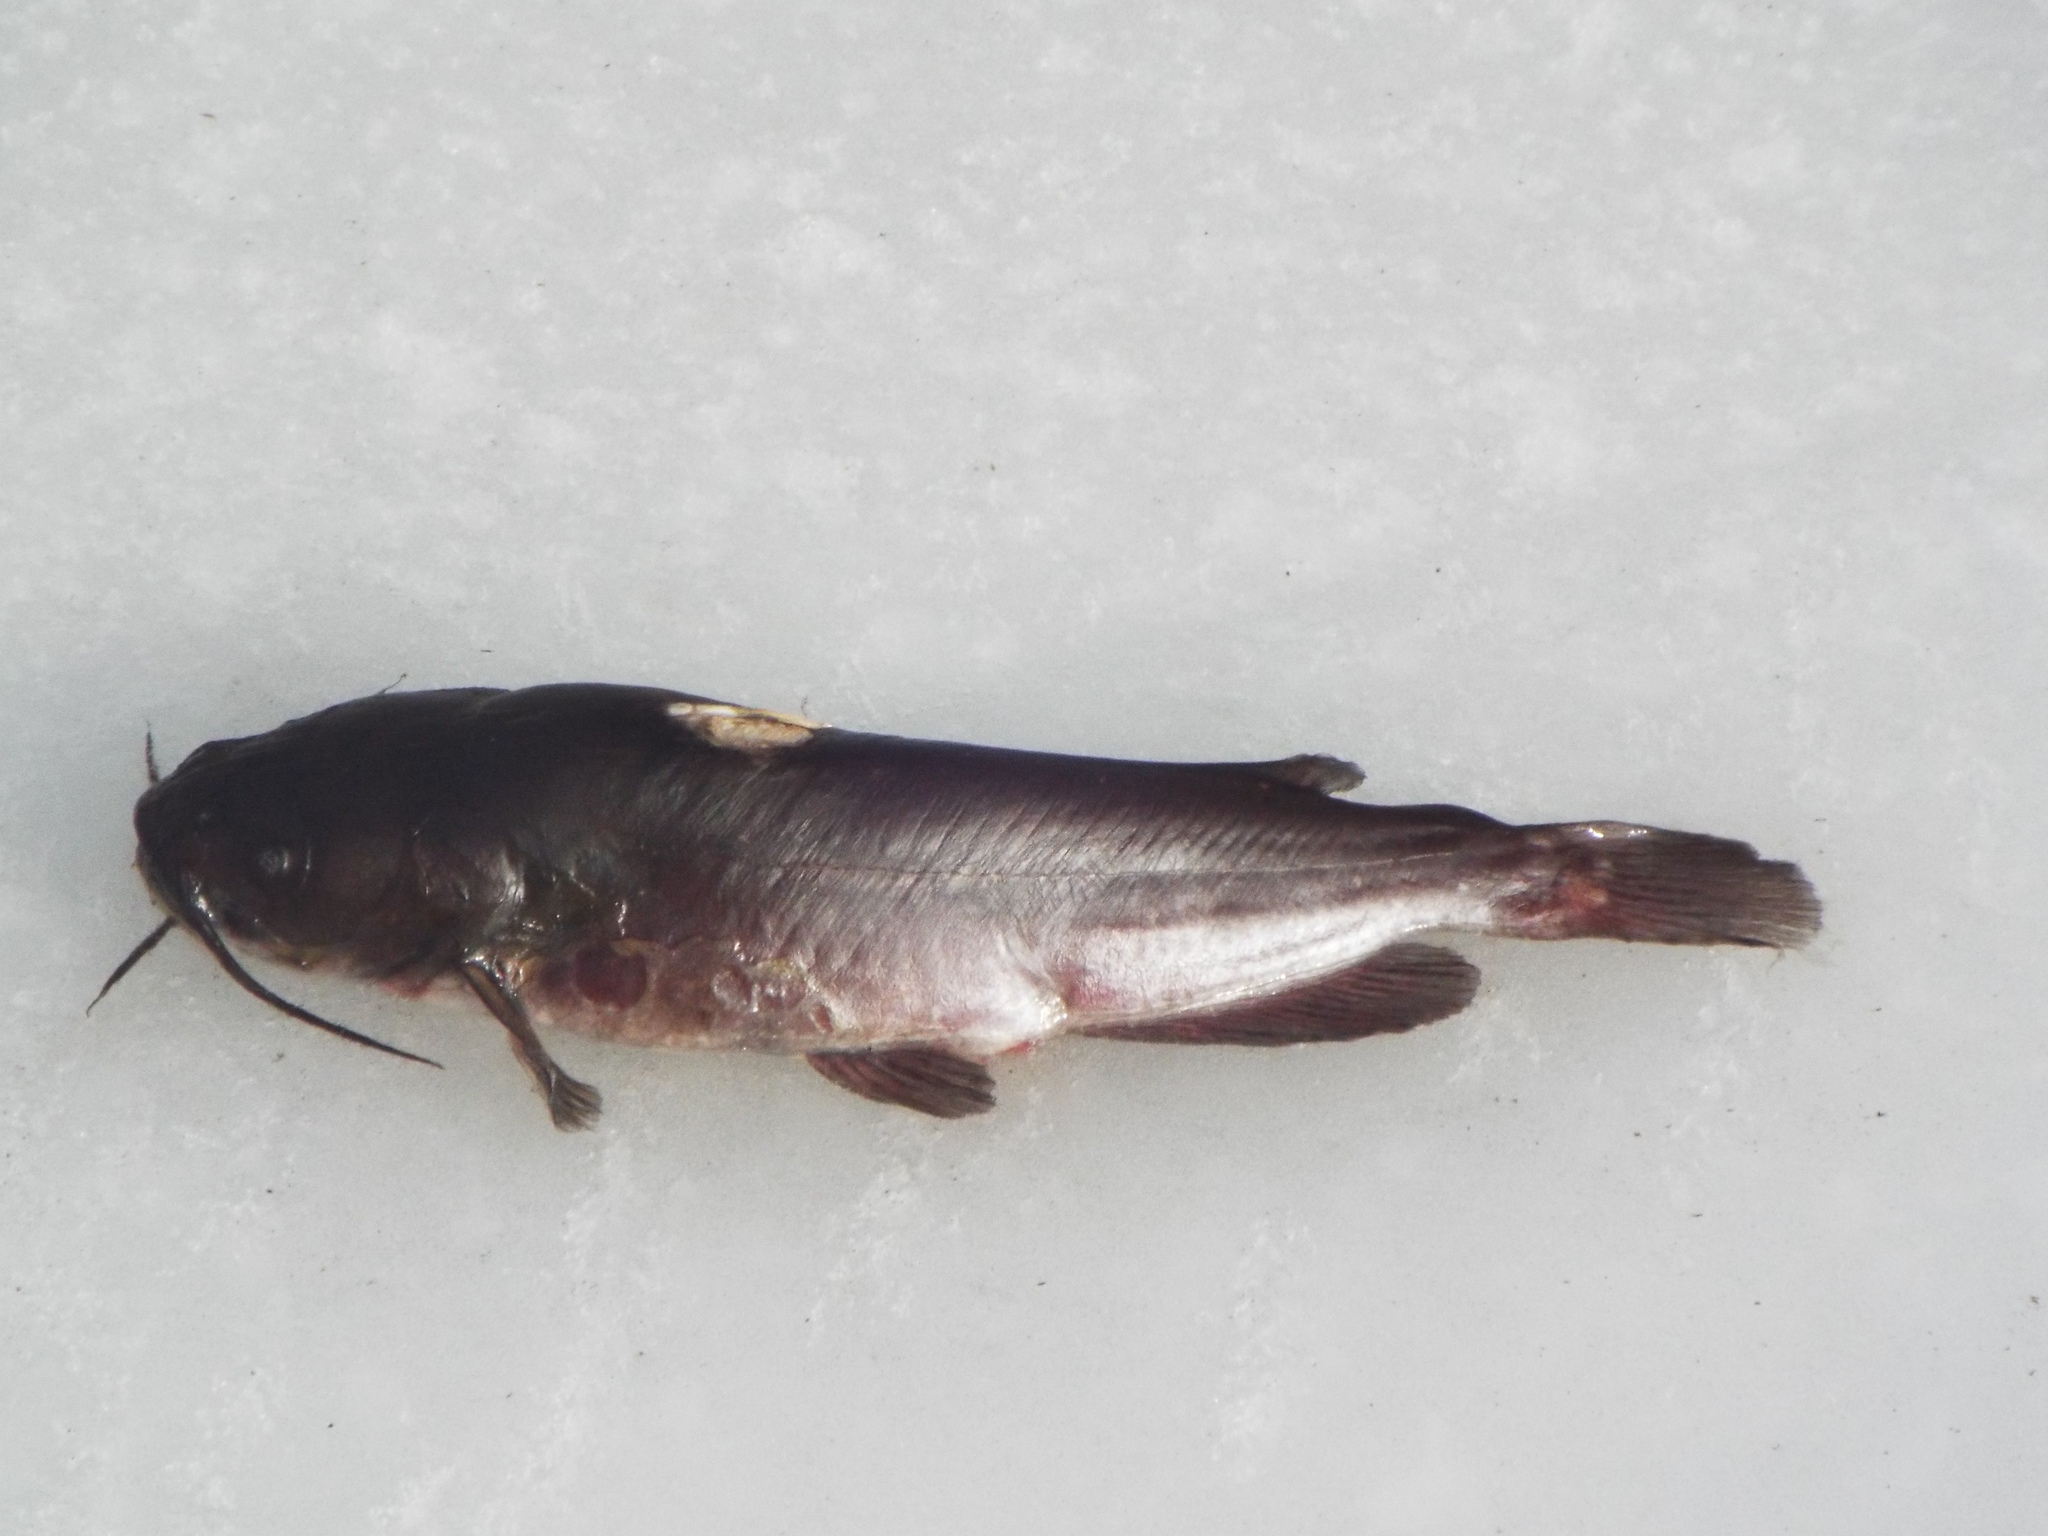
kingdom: Animalia
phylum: Chordata
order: Siluriformes
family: Ictaluridae
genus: Ameiurus
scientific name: Ameiurus nebulosus
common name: Brown bullhead
